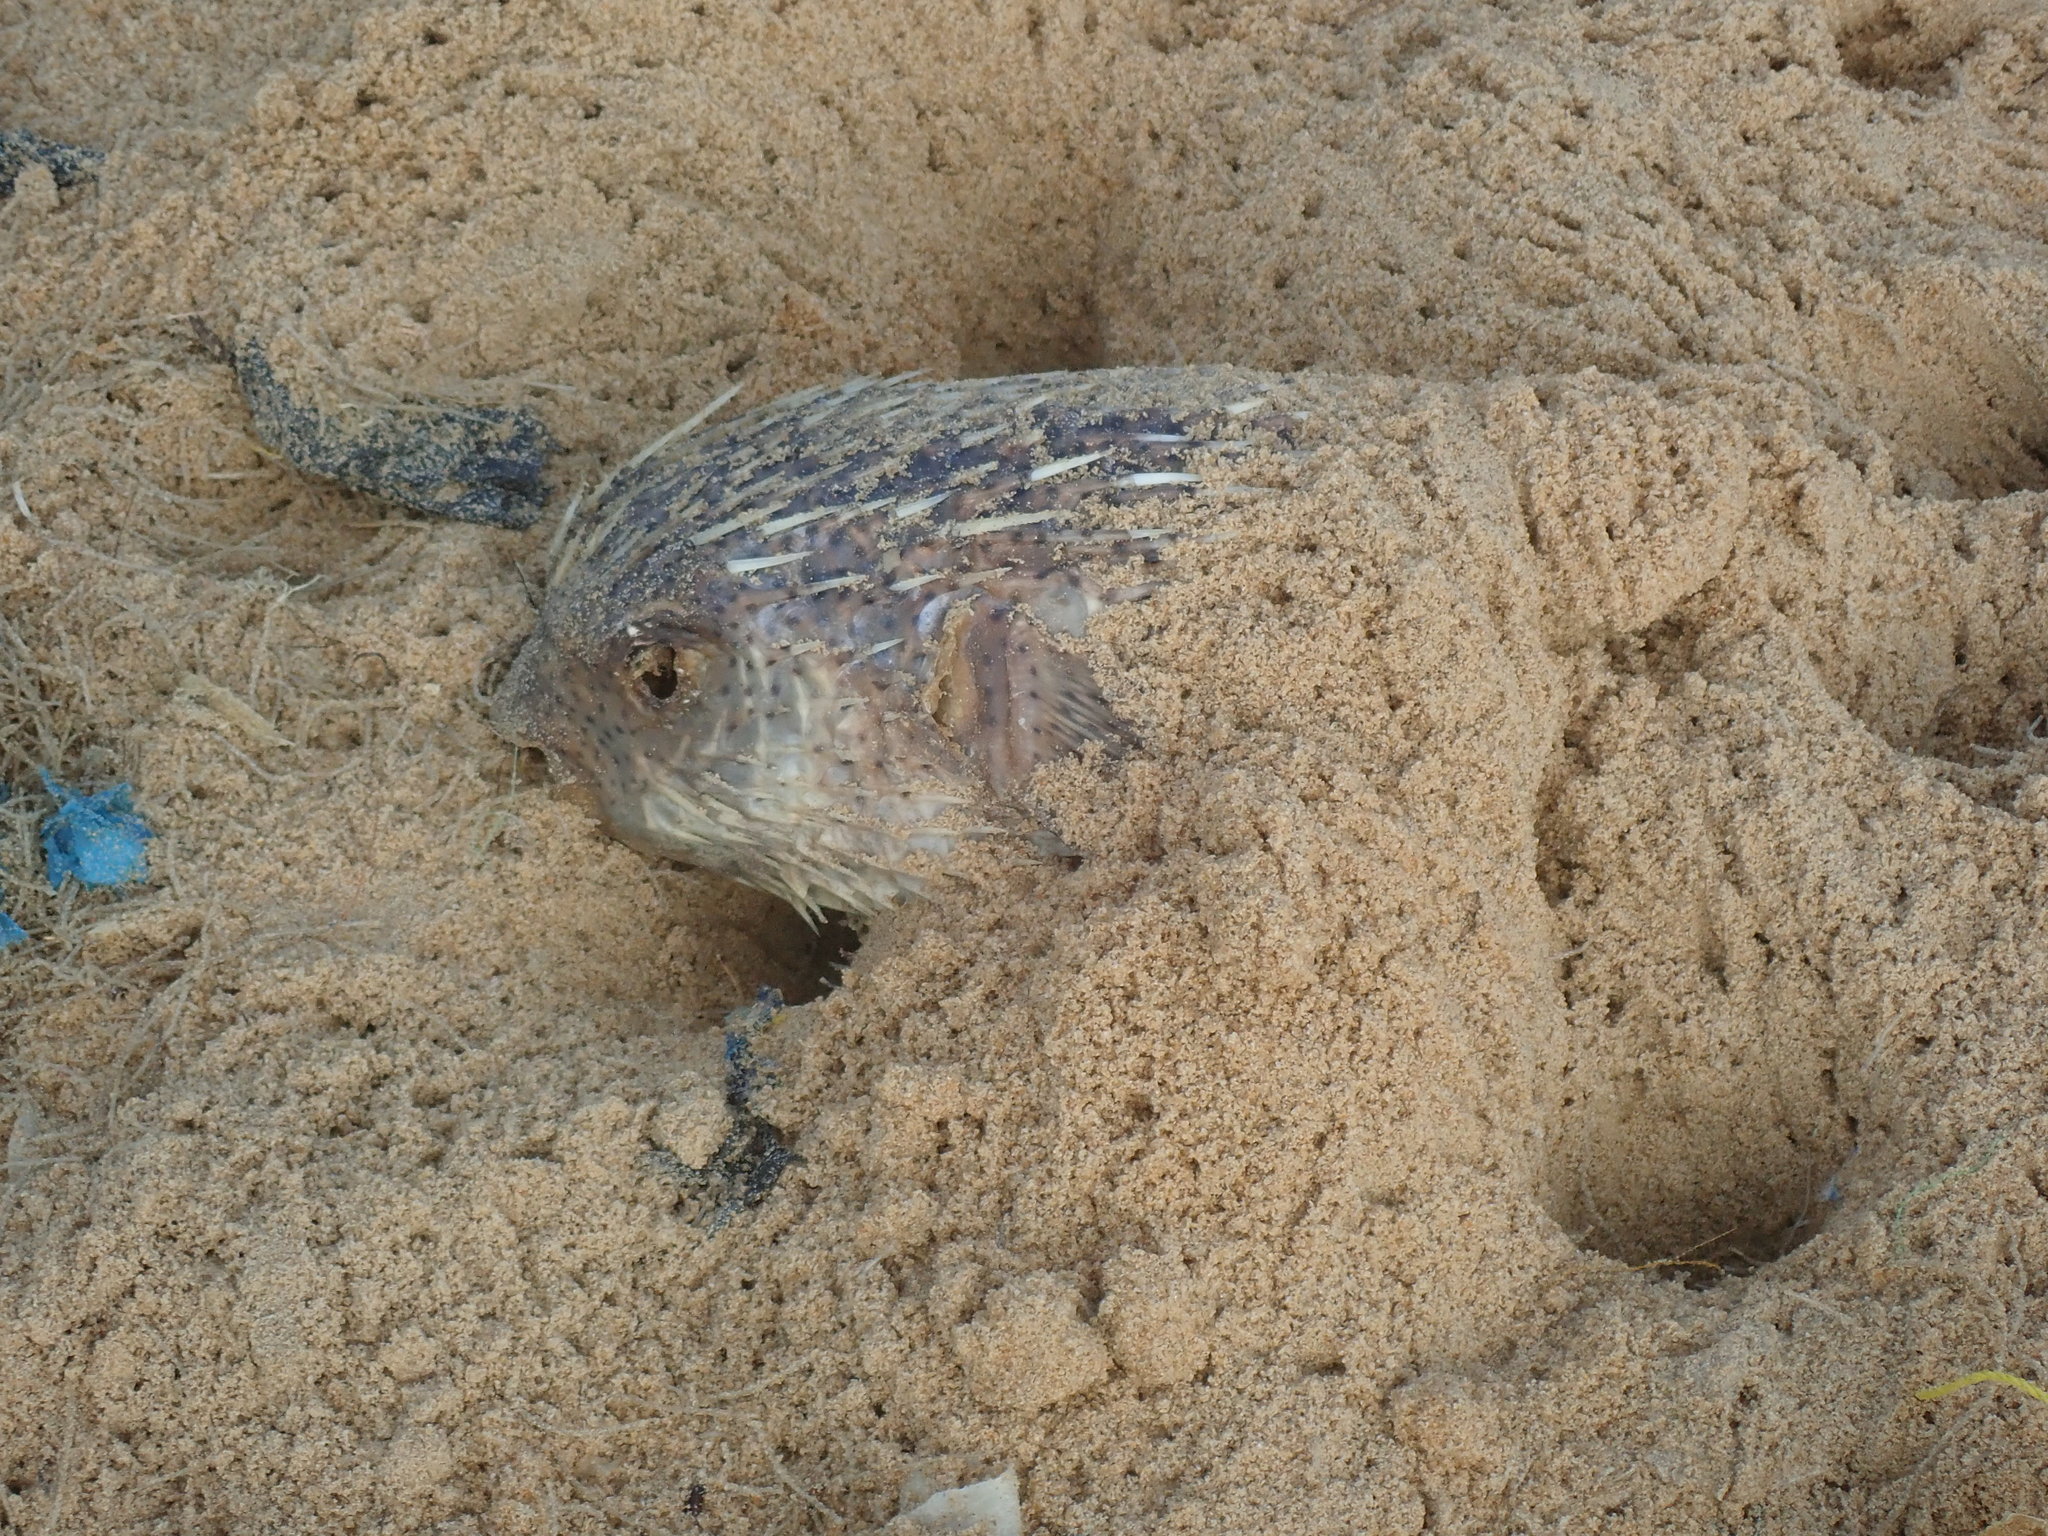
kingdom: Animalia
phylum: Chordata
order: Tetraodontiformes
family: Diodontidae
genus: Diodon
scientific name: Diodon hystrix
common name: Giant porcupinefish
